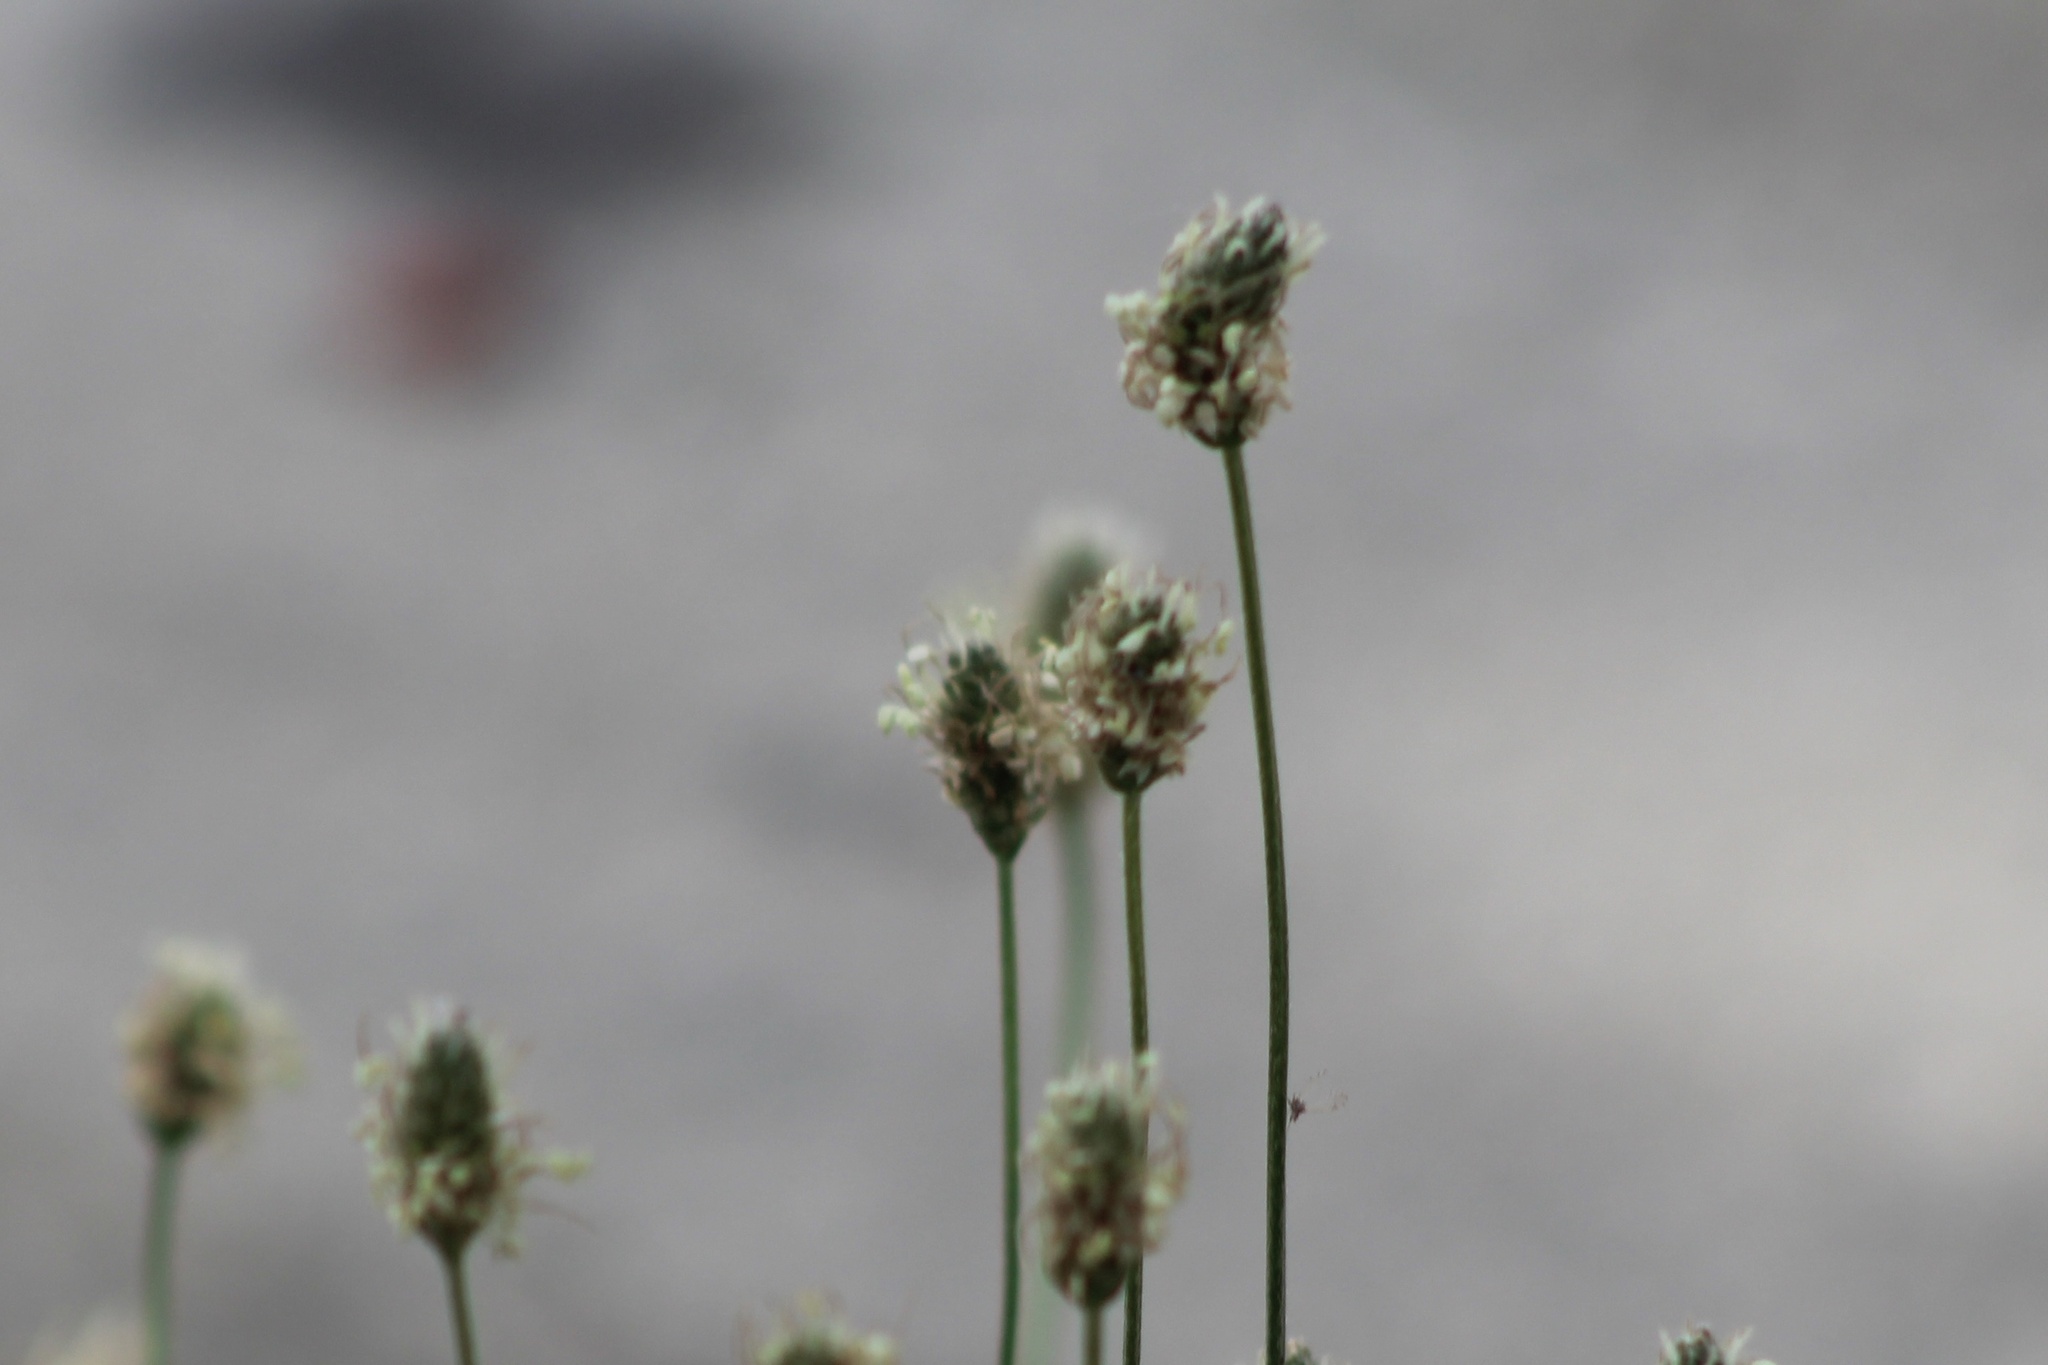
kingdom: Plantae
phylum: Tracheophyta
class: Magnoliopsida
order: Lamiales
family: Plantaginaceae
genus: Plantago
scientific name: Plantago lanceolata
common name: Ribwort plantain
